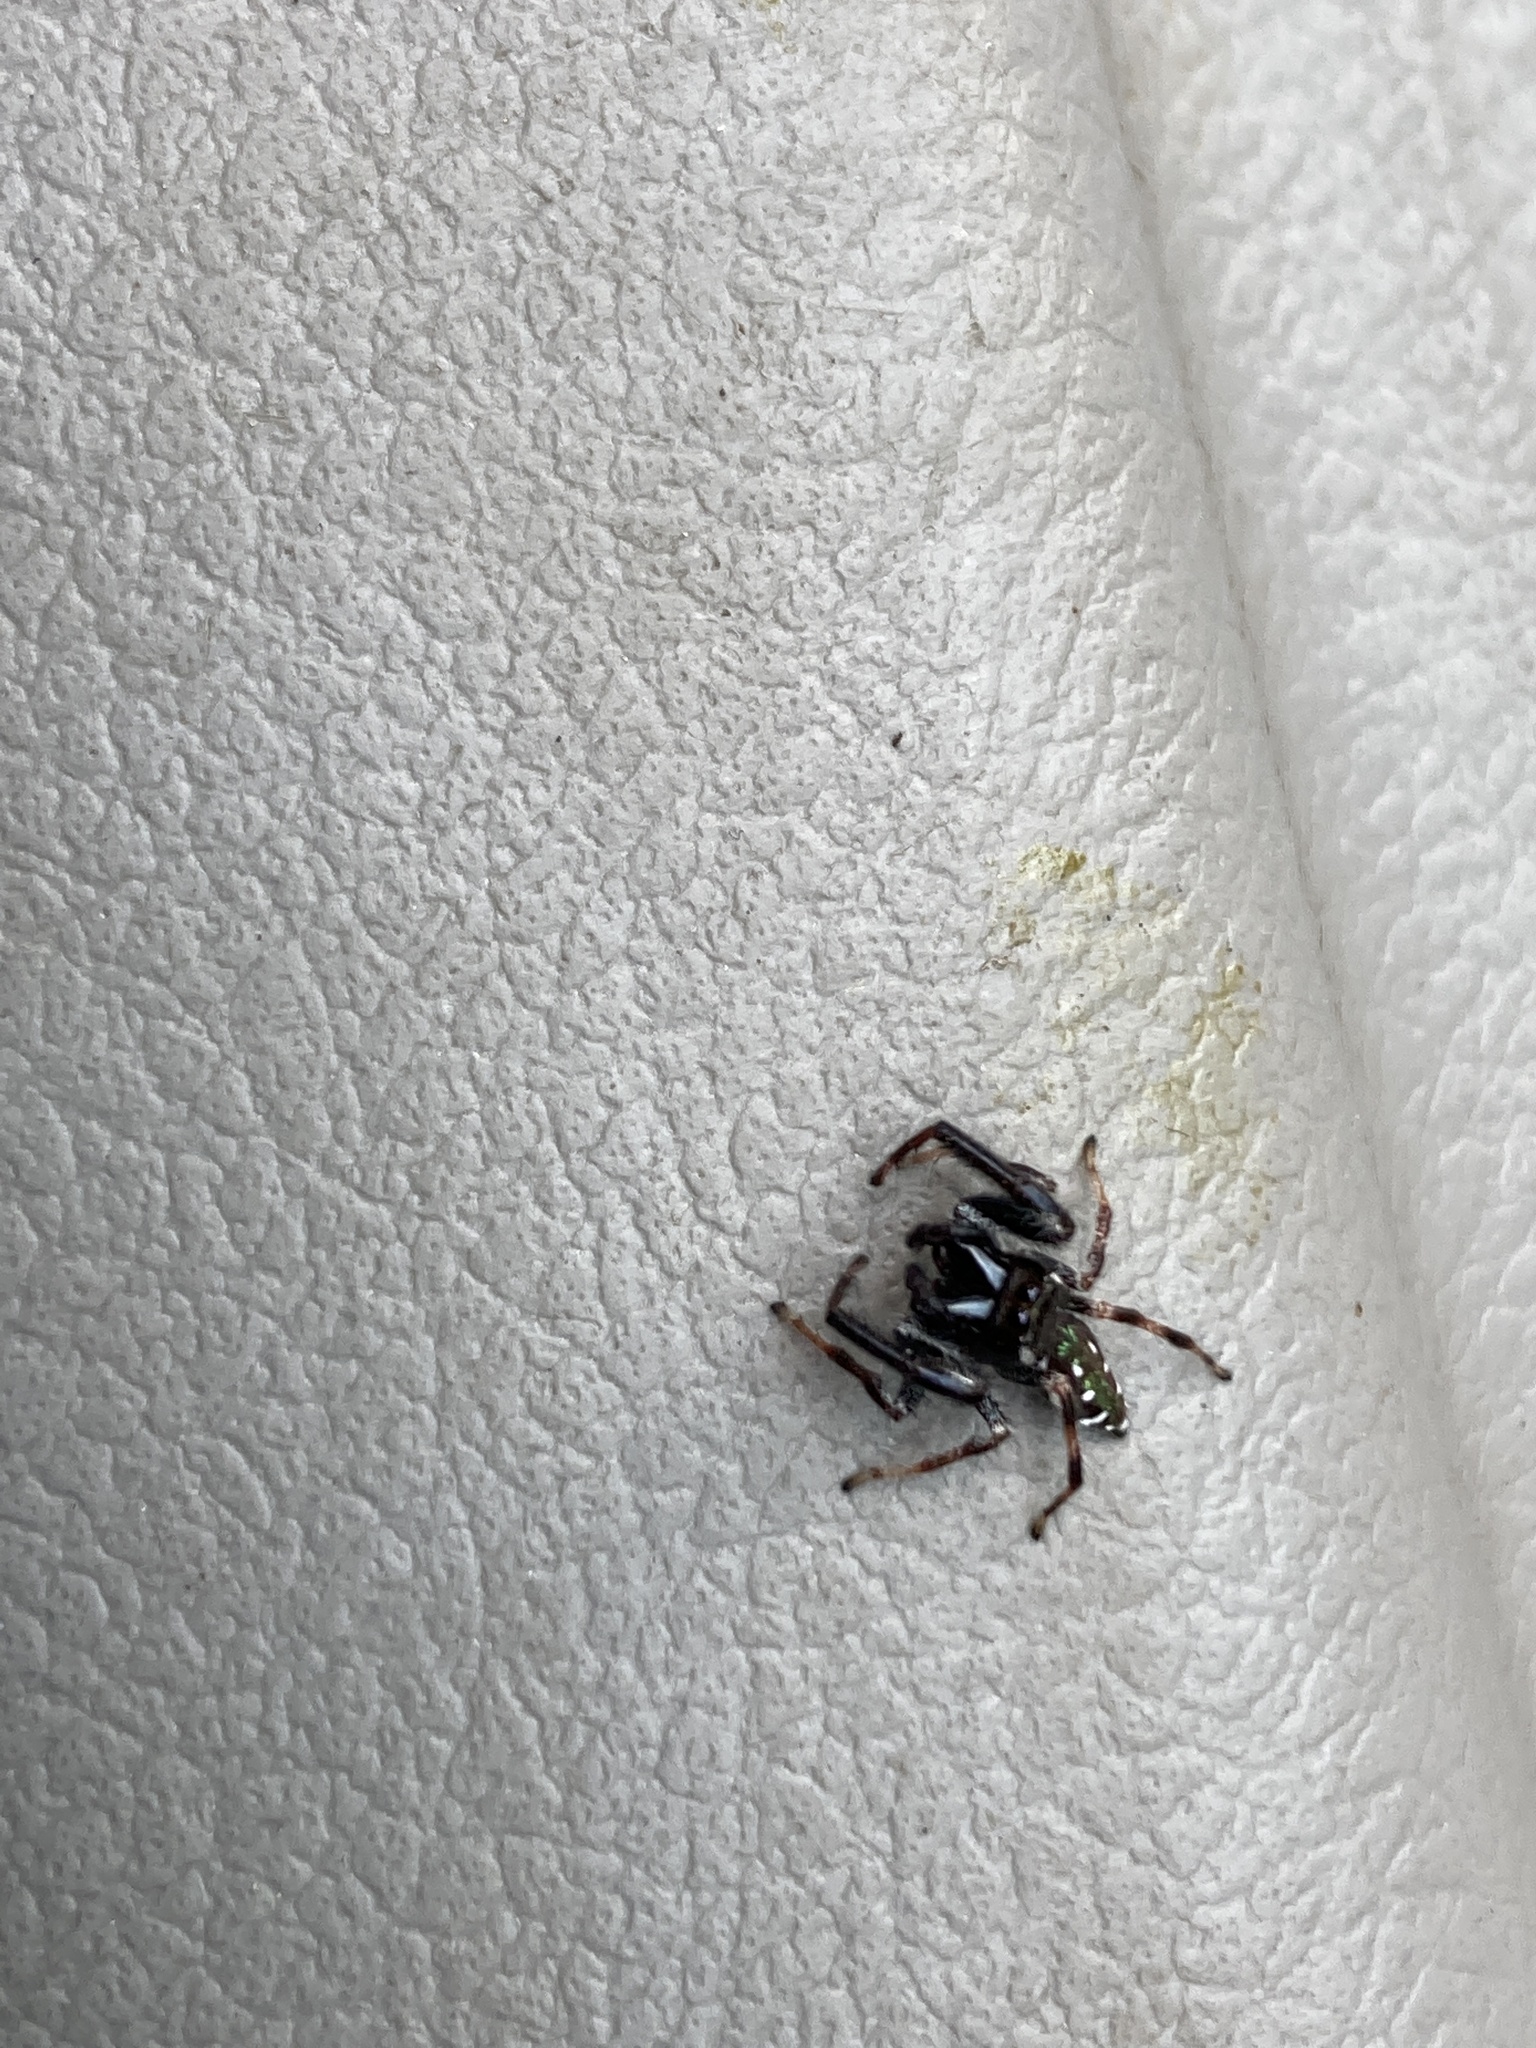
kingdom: Animalia
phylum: Arthropoda
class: Arachnida
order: Araneae
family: Salticidae
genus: Paraphidippus
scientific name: Paraphidippus aurantius
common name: Jumping spiders
